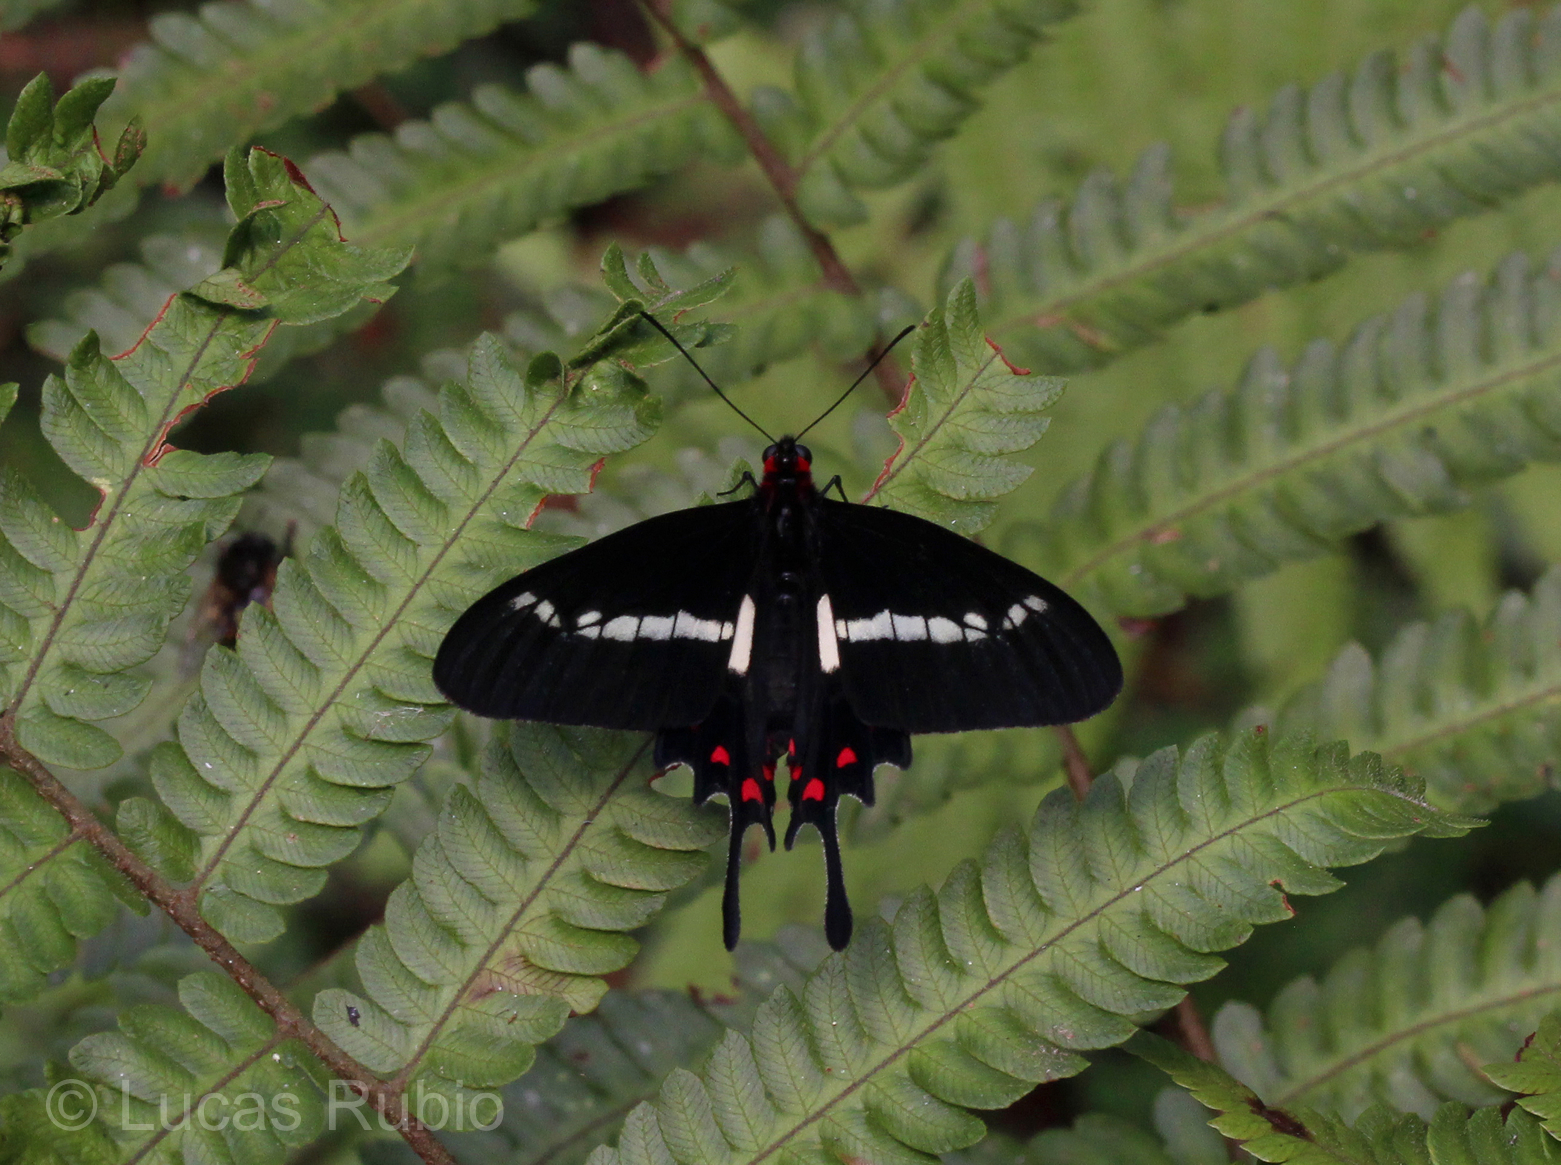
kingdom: Animalia
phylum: Arthropoda
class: Insecta
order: Lepidoptera
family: Papilionidae
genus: Parides
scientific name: Parides agavus
